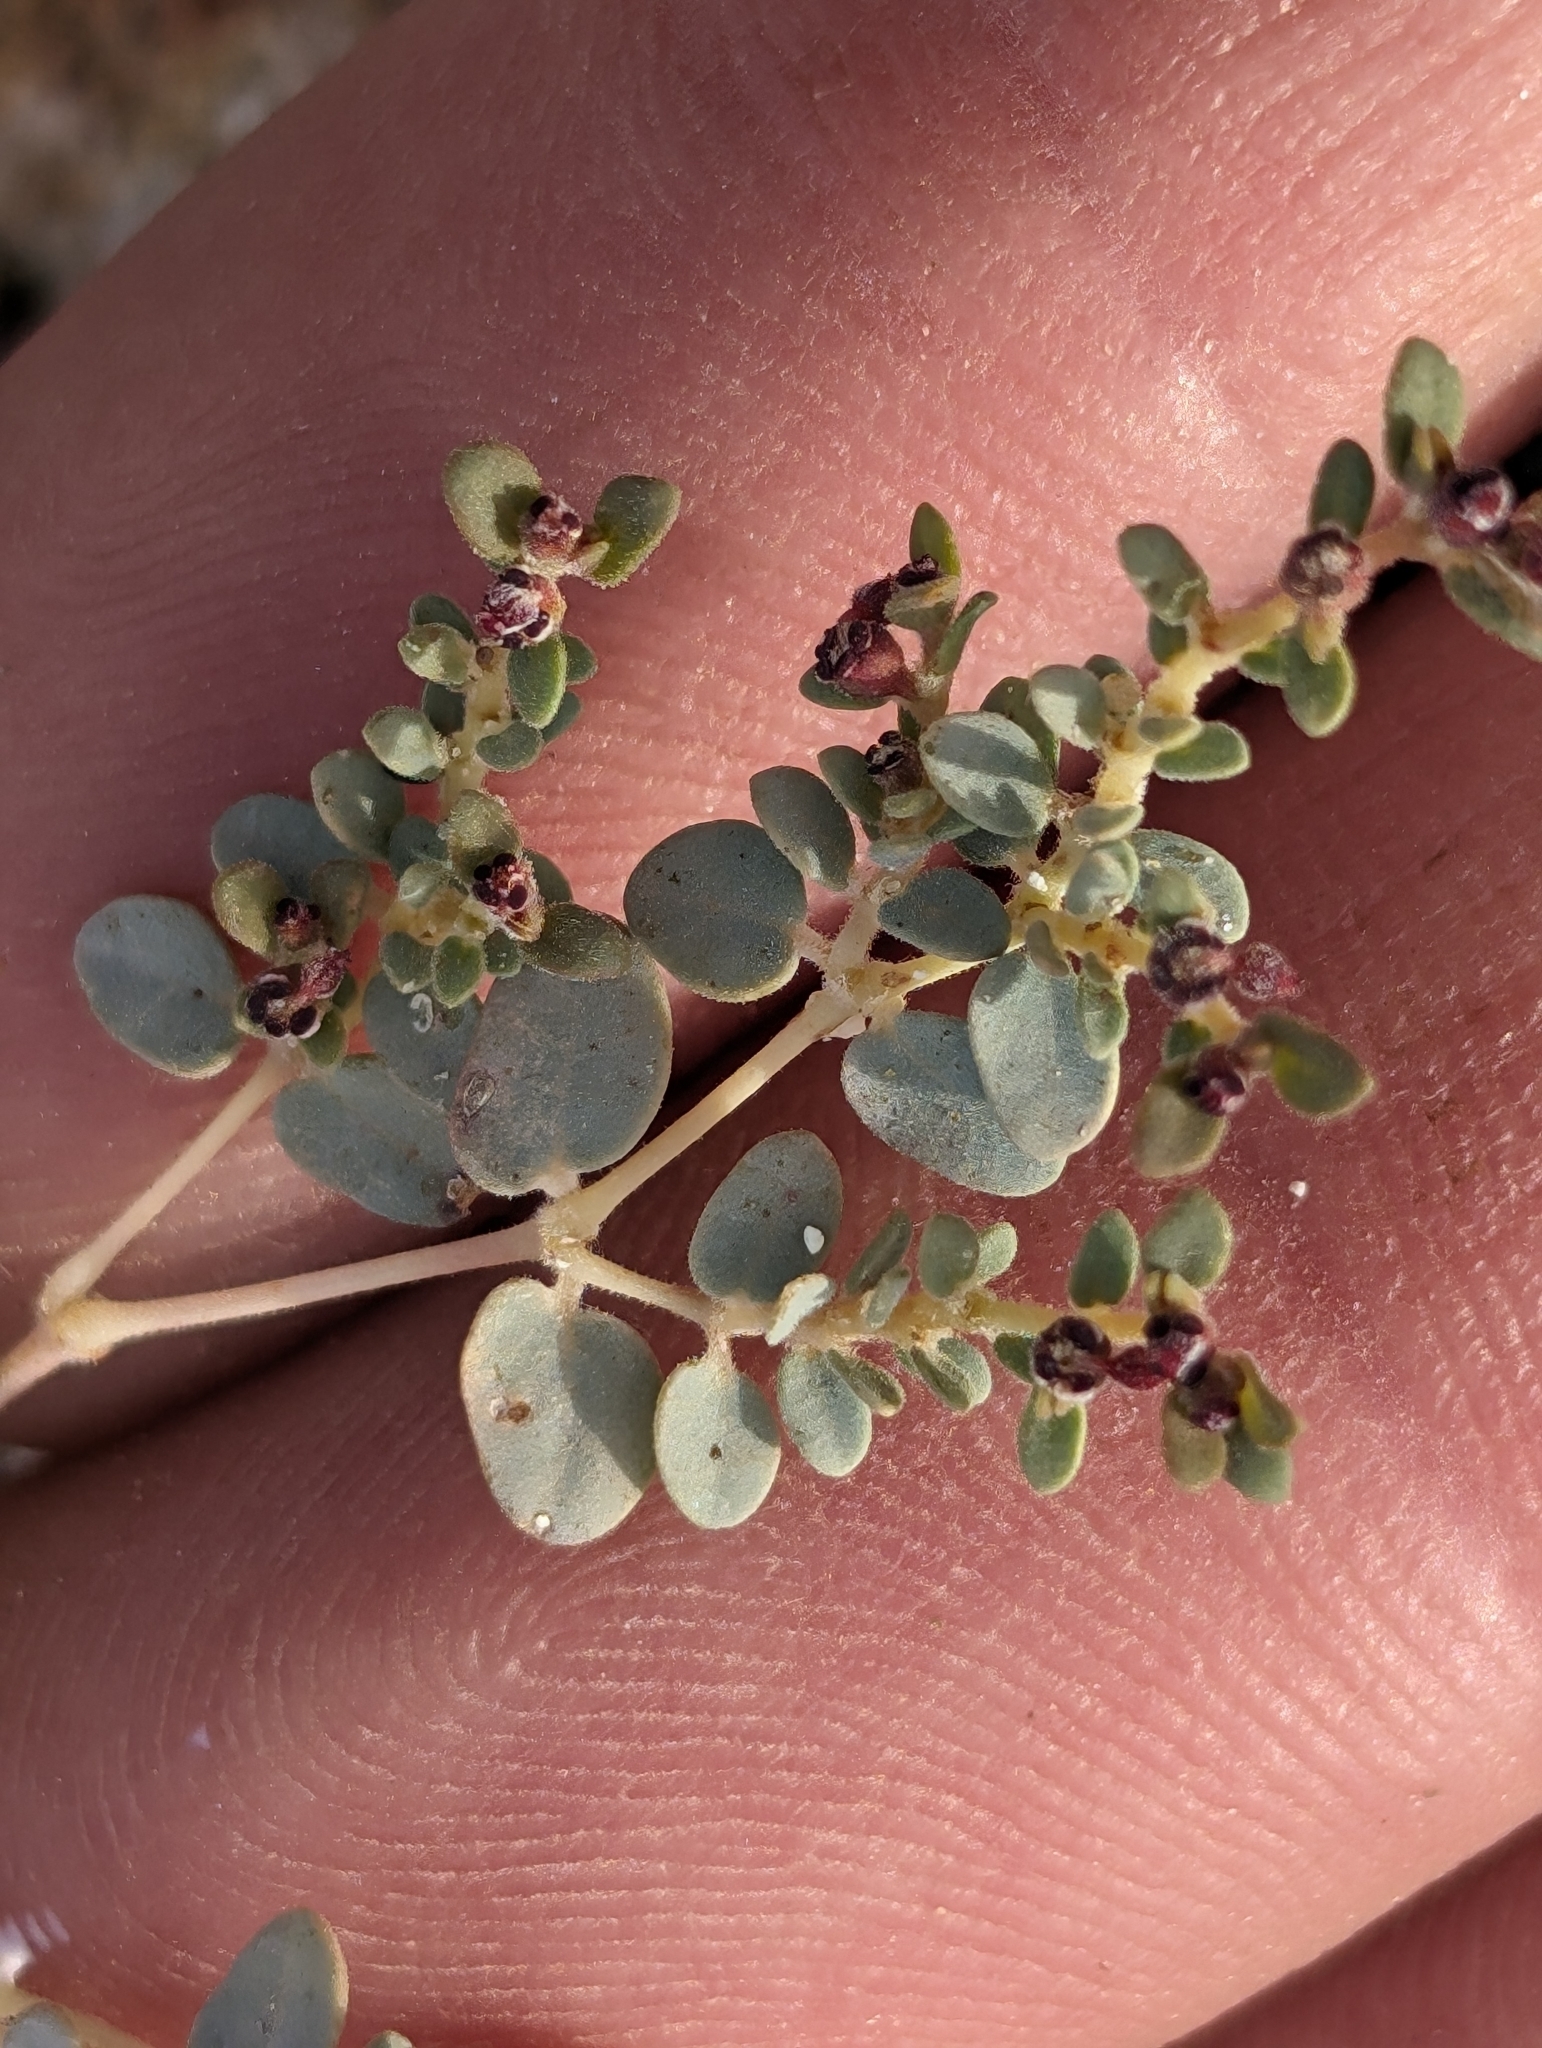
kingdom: Plantae
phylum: Tracheophyta
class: Magnoliopsida
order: Malpighiales
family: Euphorbiaceae
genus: Euphorbia
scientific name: Euphorbia polycarpa
